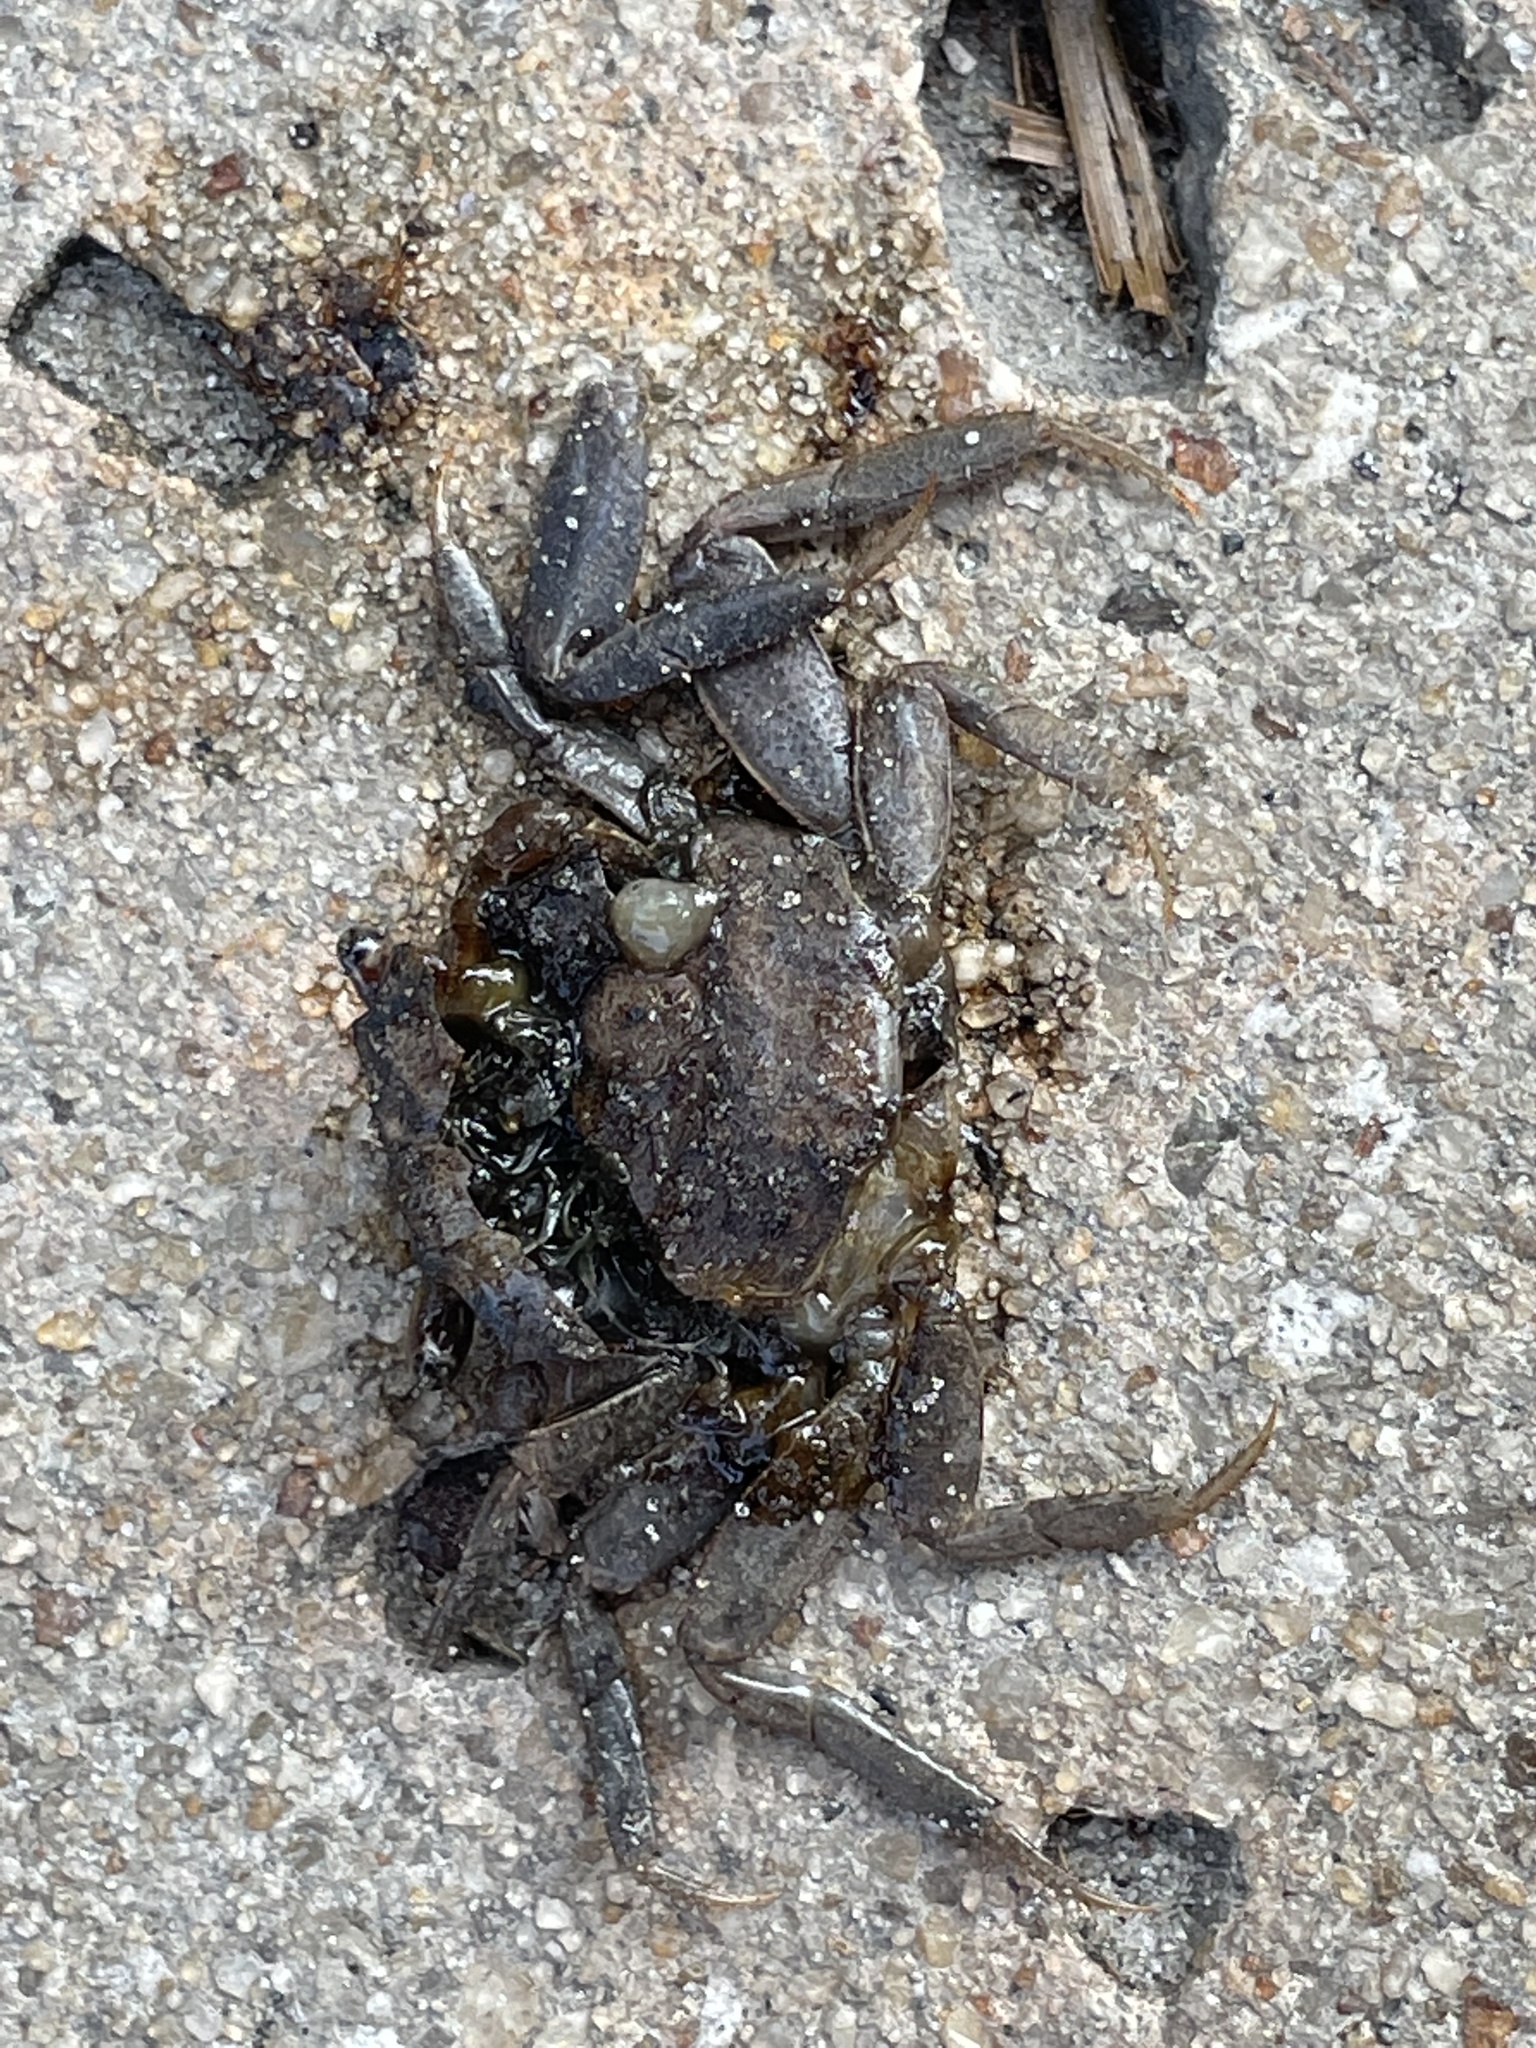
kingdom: Animalia
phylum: Arthropoda
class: Malacostraca
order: Decapoda
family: Sesarmidae
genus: Armases
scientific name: Armases cinereum
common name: Squareback marsh crab
